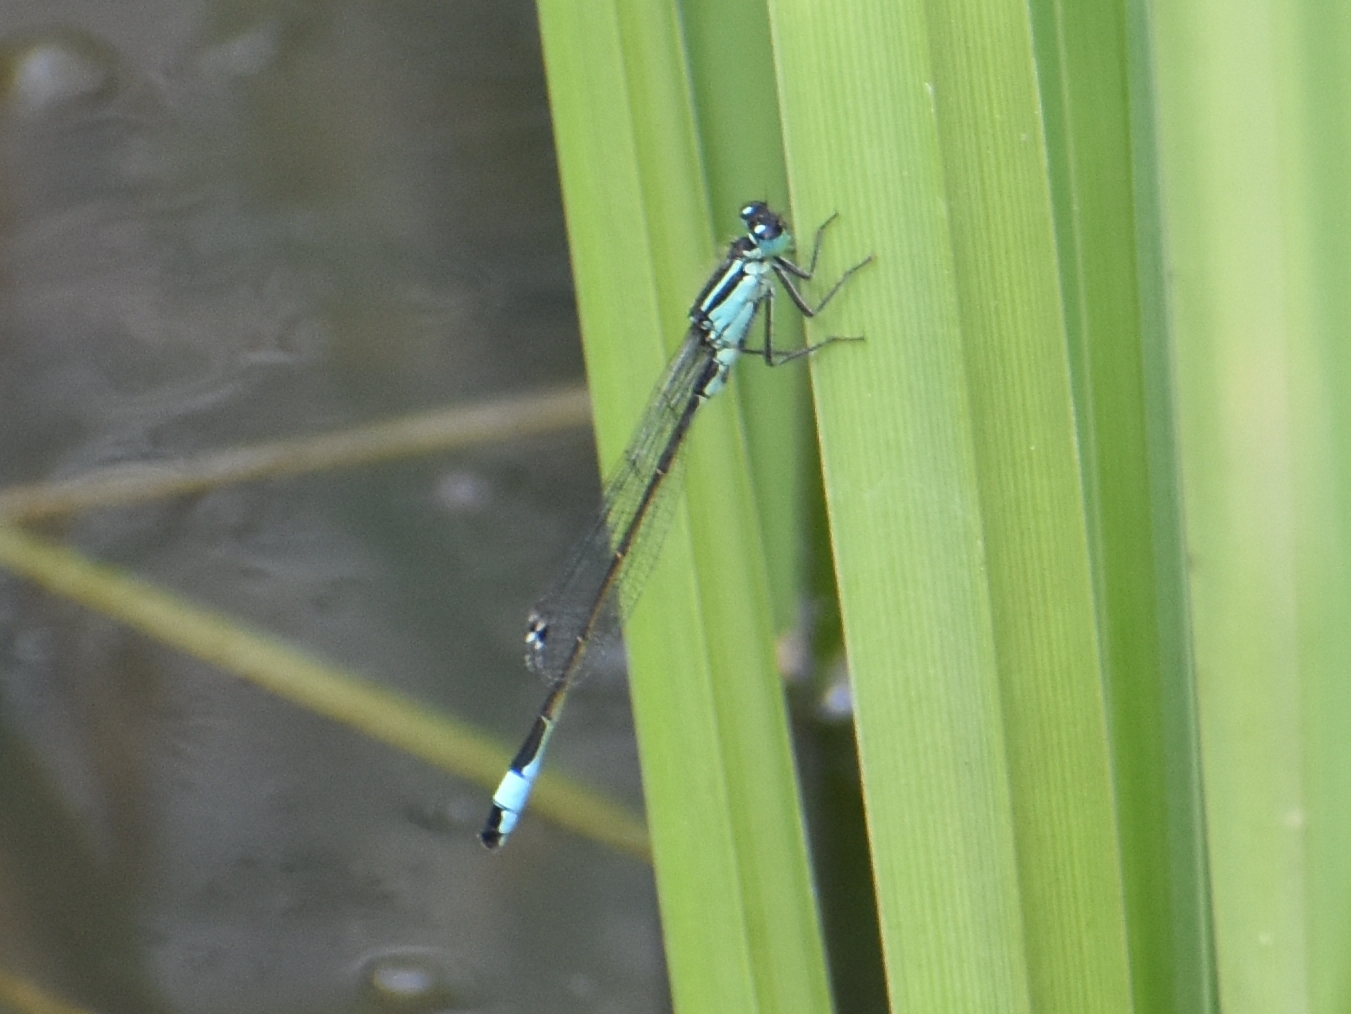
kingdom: Animalia
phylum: Arthropoda
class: Insecta
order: Odonata
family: Coenagrionidae
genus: Ischnura
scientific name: Ischnura elegans
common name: Blue-tailed damselfly
